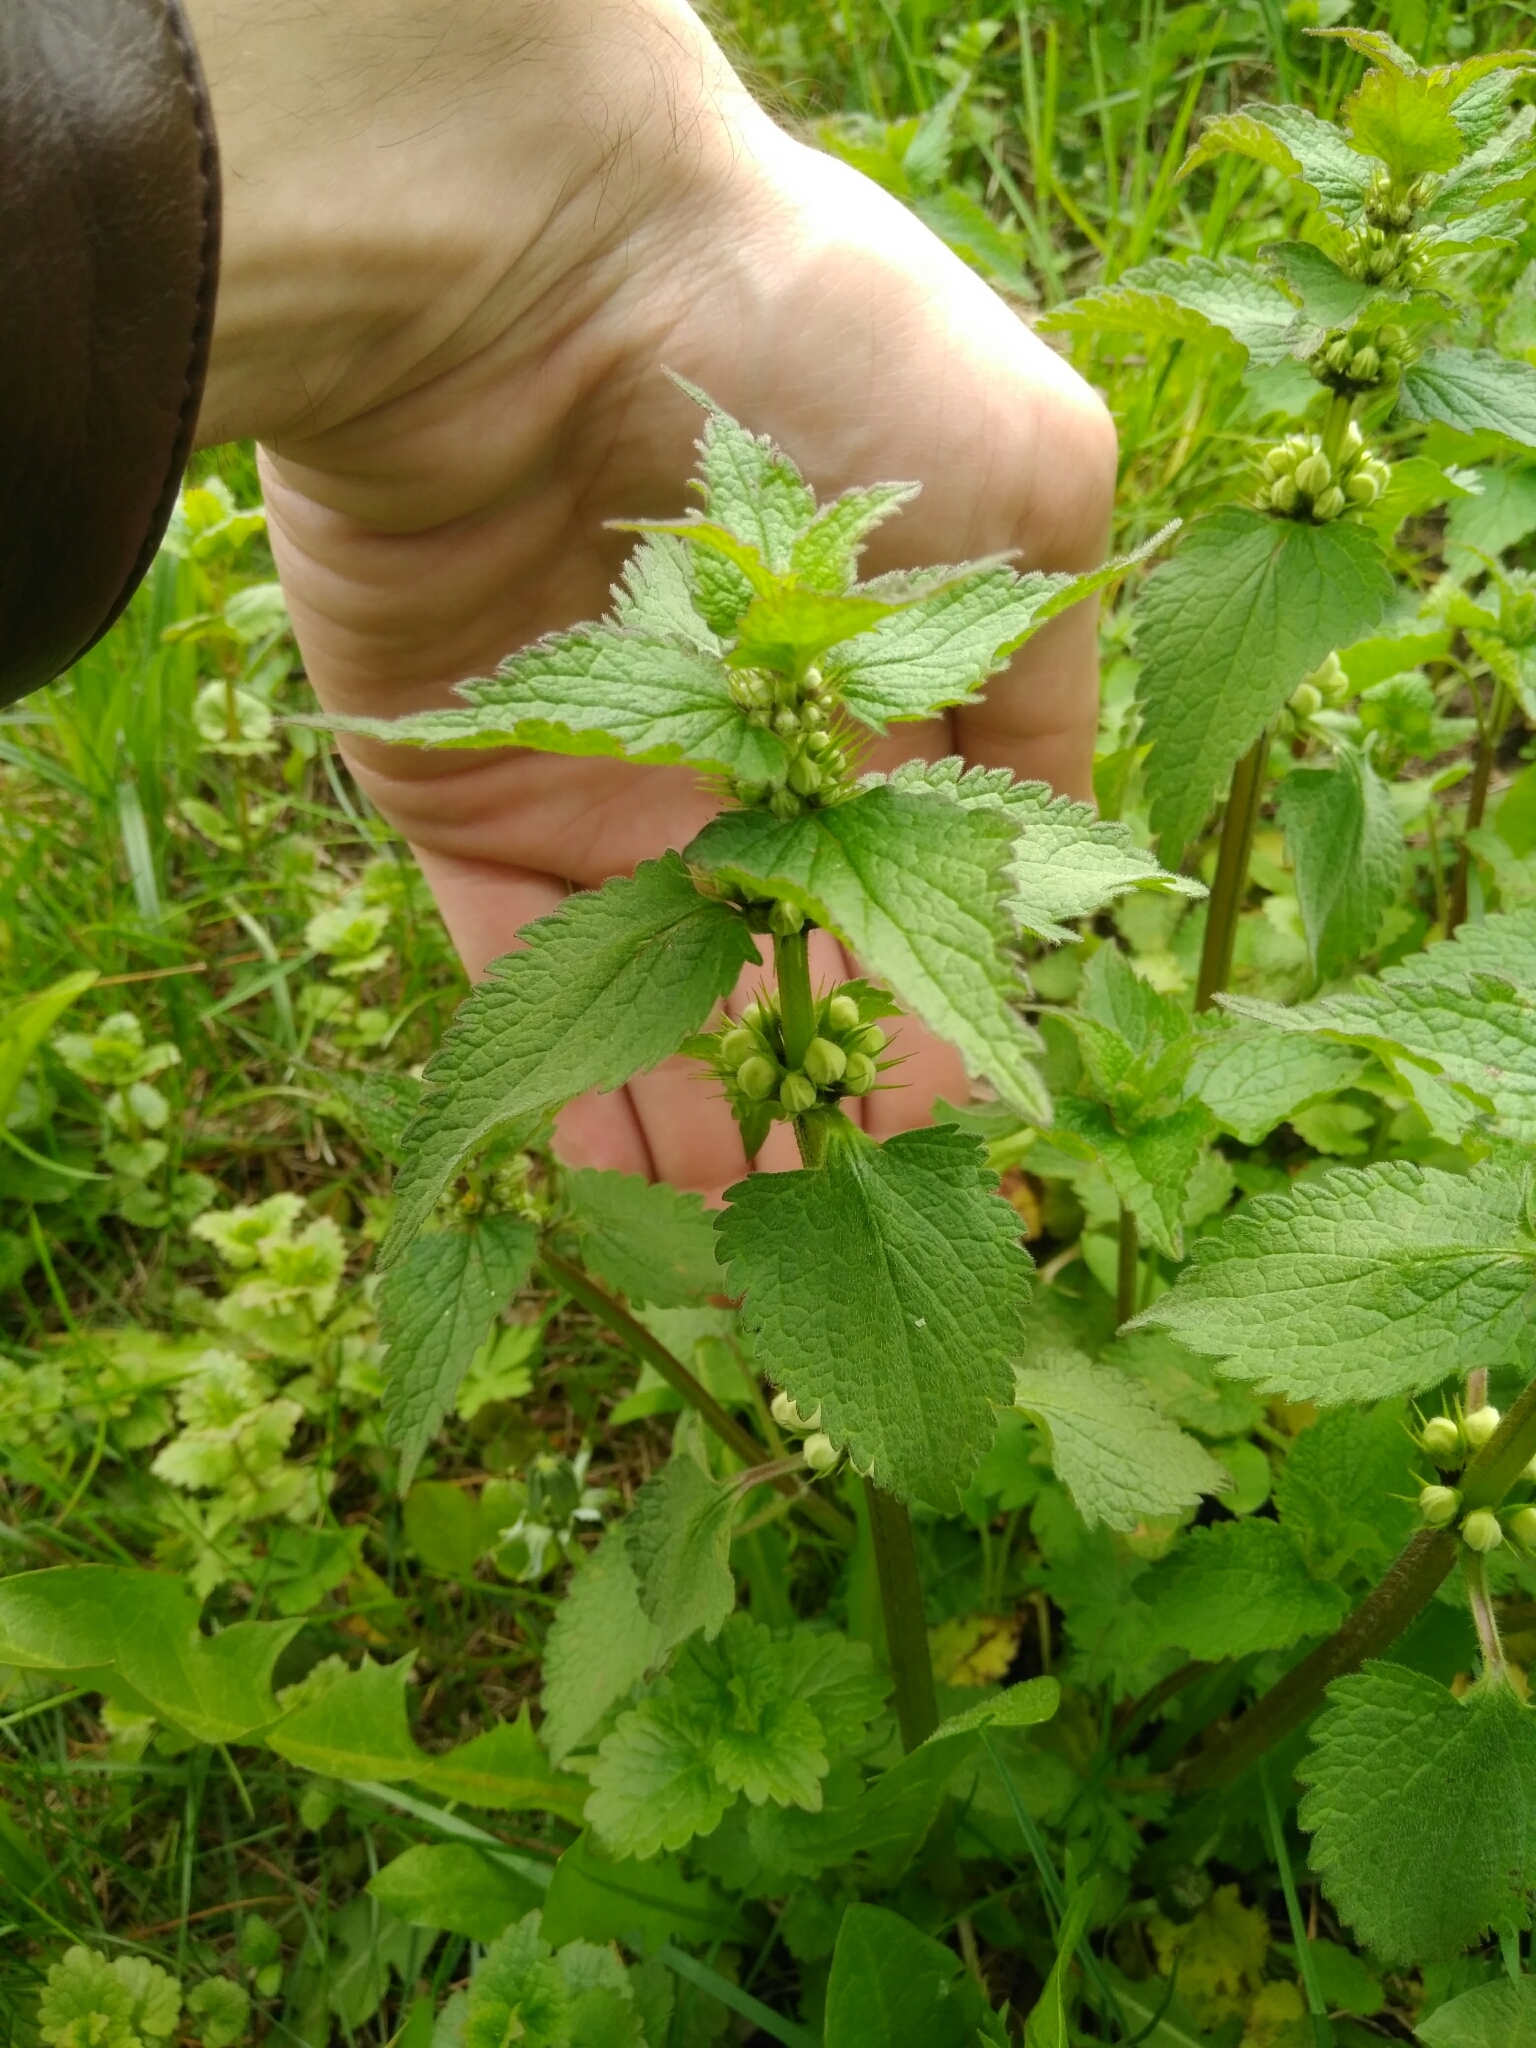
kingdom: Plantae
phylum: Tracheophyta
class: Magnoliopsida
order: Lamiales
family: Lamiaceae
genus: Lamium
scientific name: Lamium album
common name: White dead-nettle
